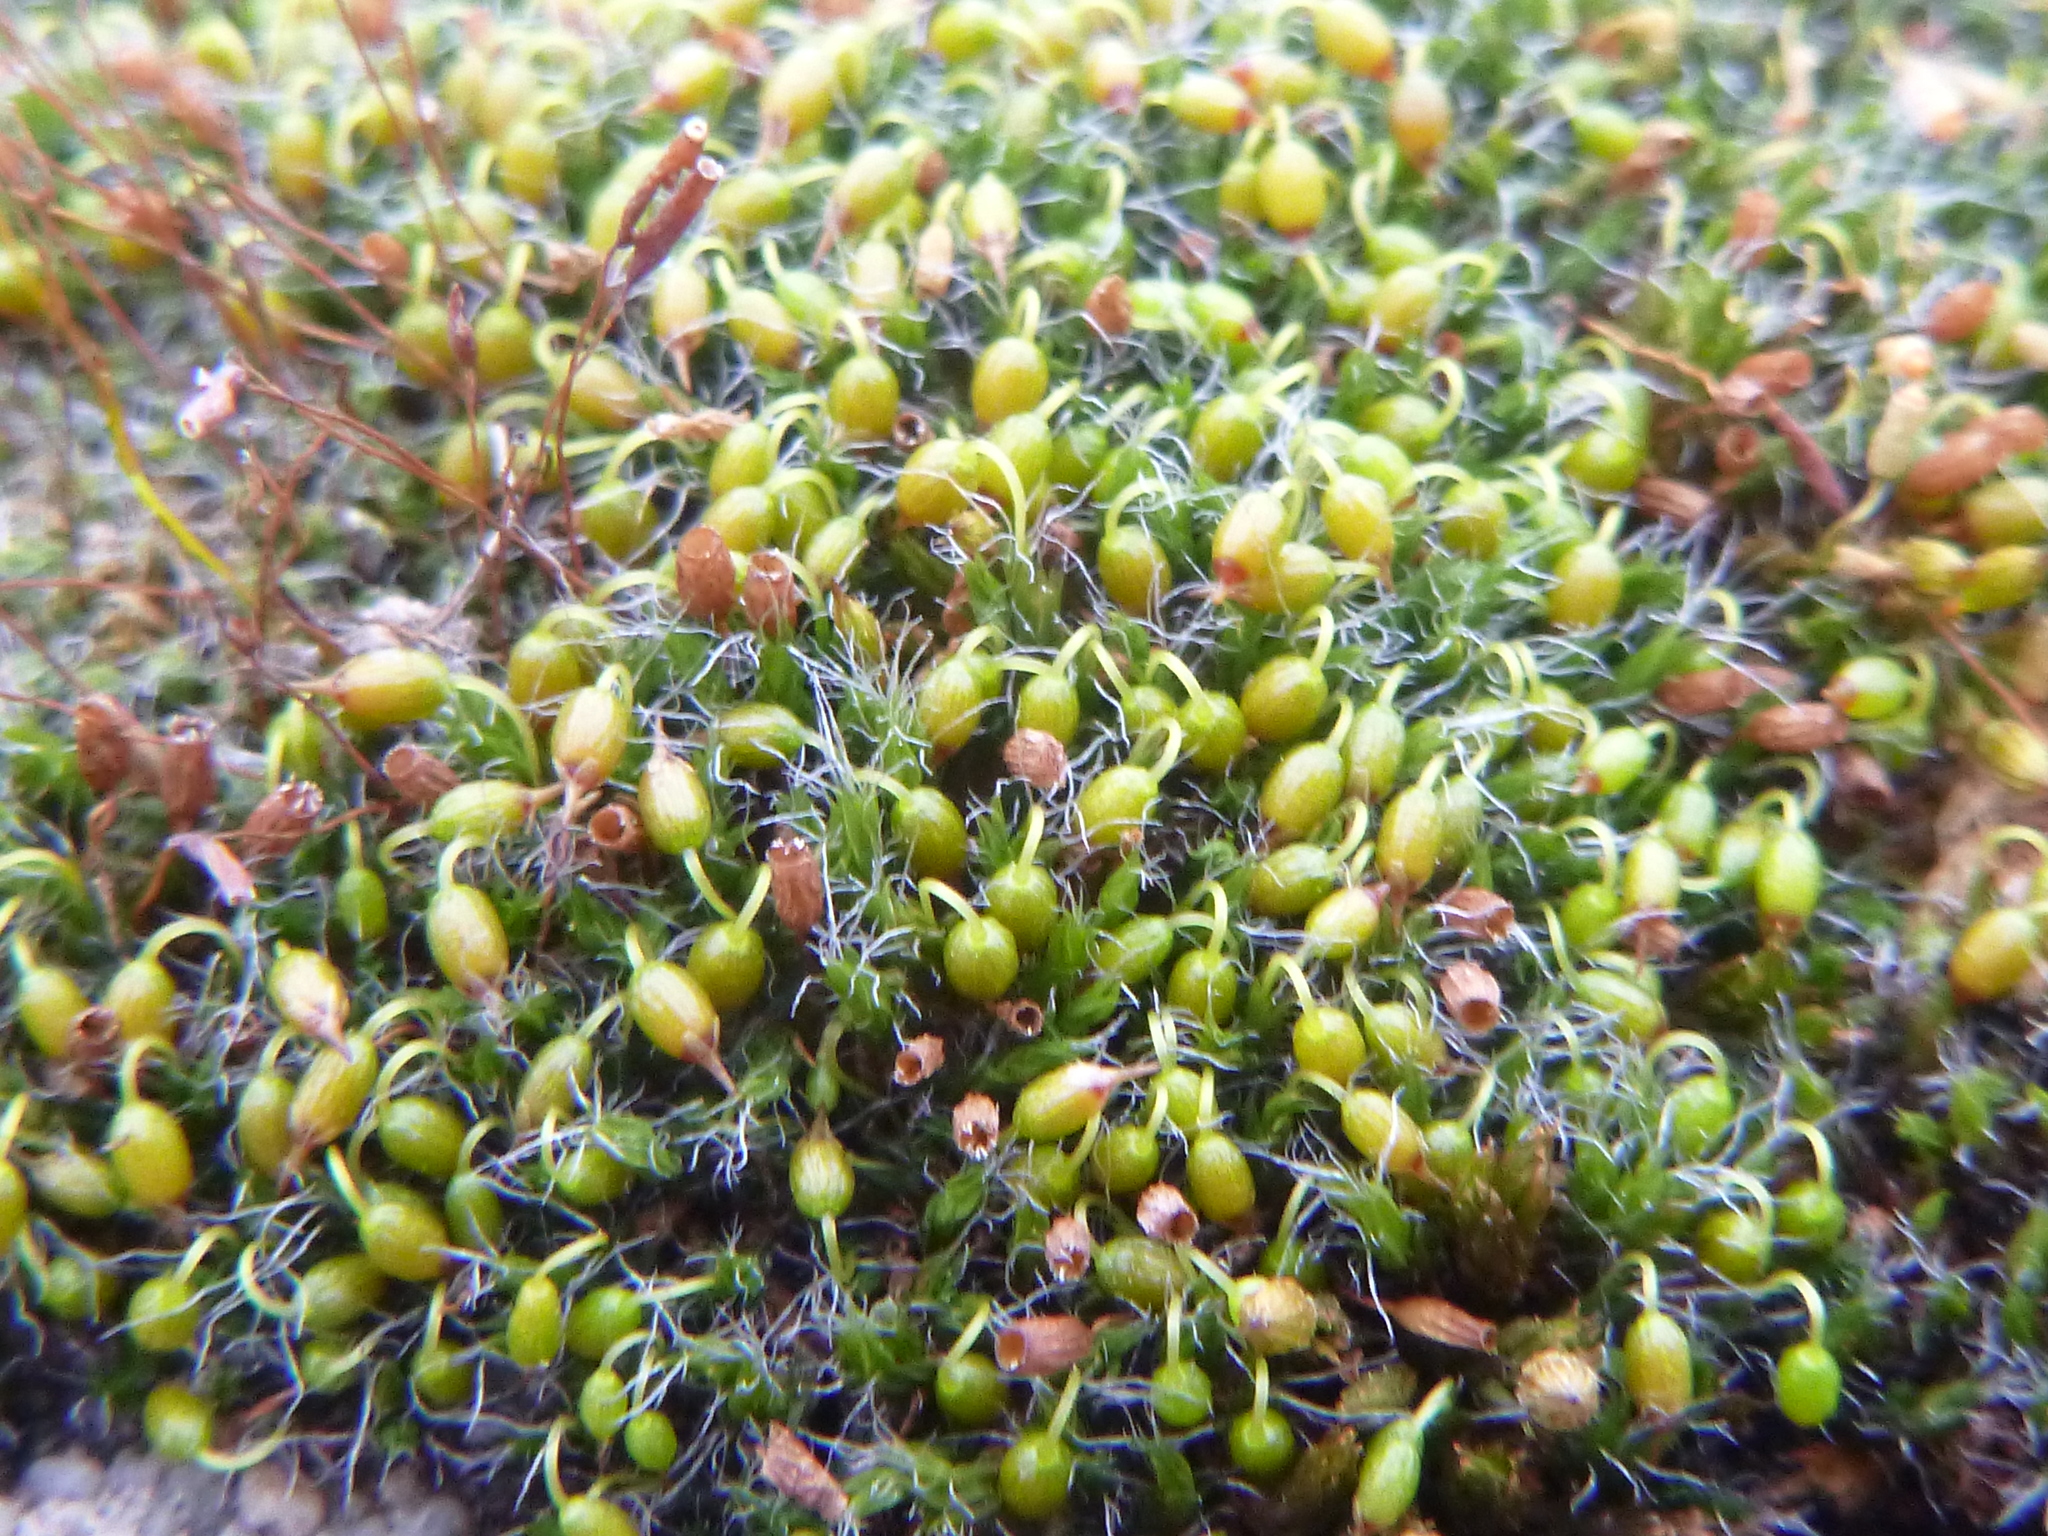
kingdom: Plantae
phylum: Bryophyta
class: Bryopsida
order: Grimmiales
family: Grimmiaceae
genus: Grimmia
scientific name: Grimmia pulvinata
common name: Grey-cushioned grimmia
